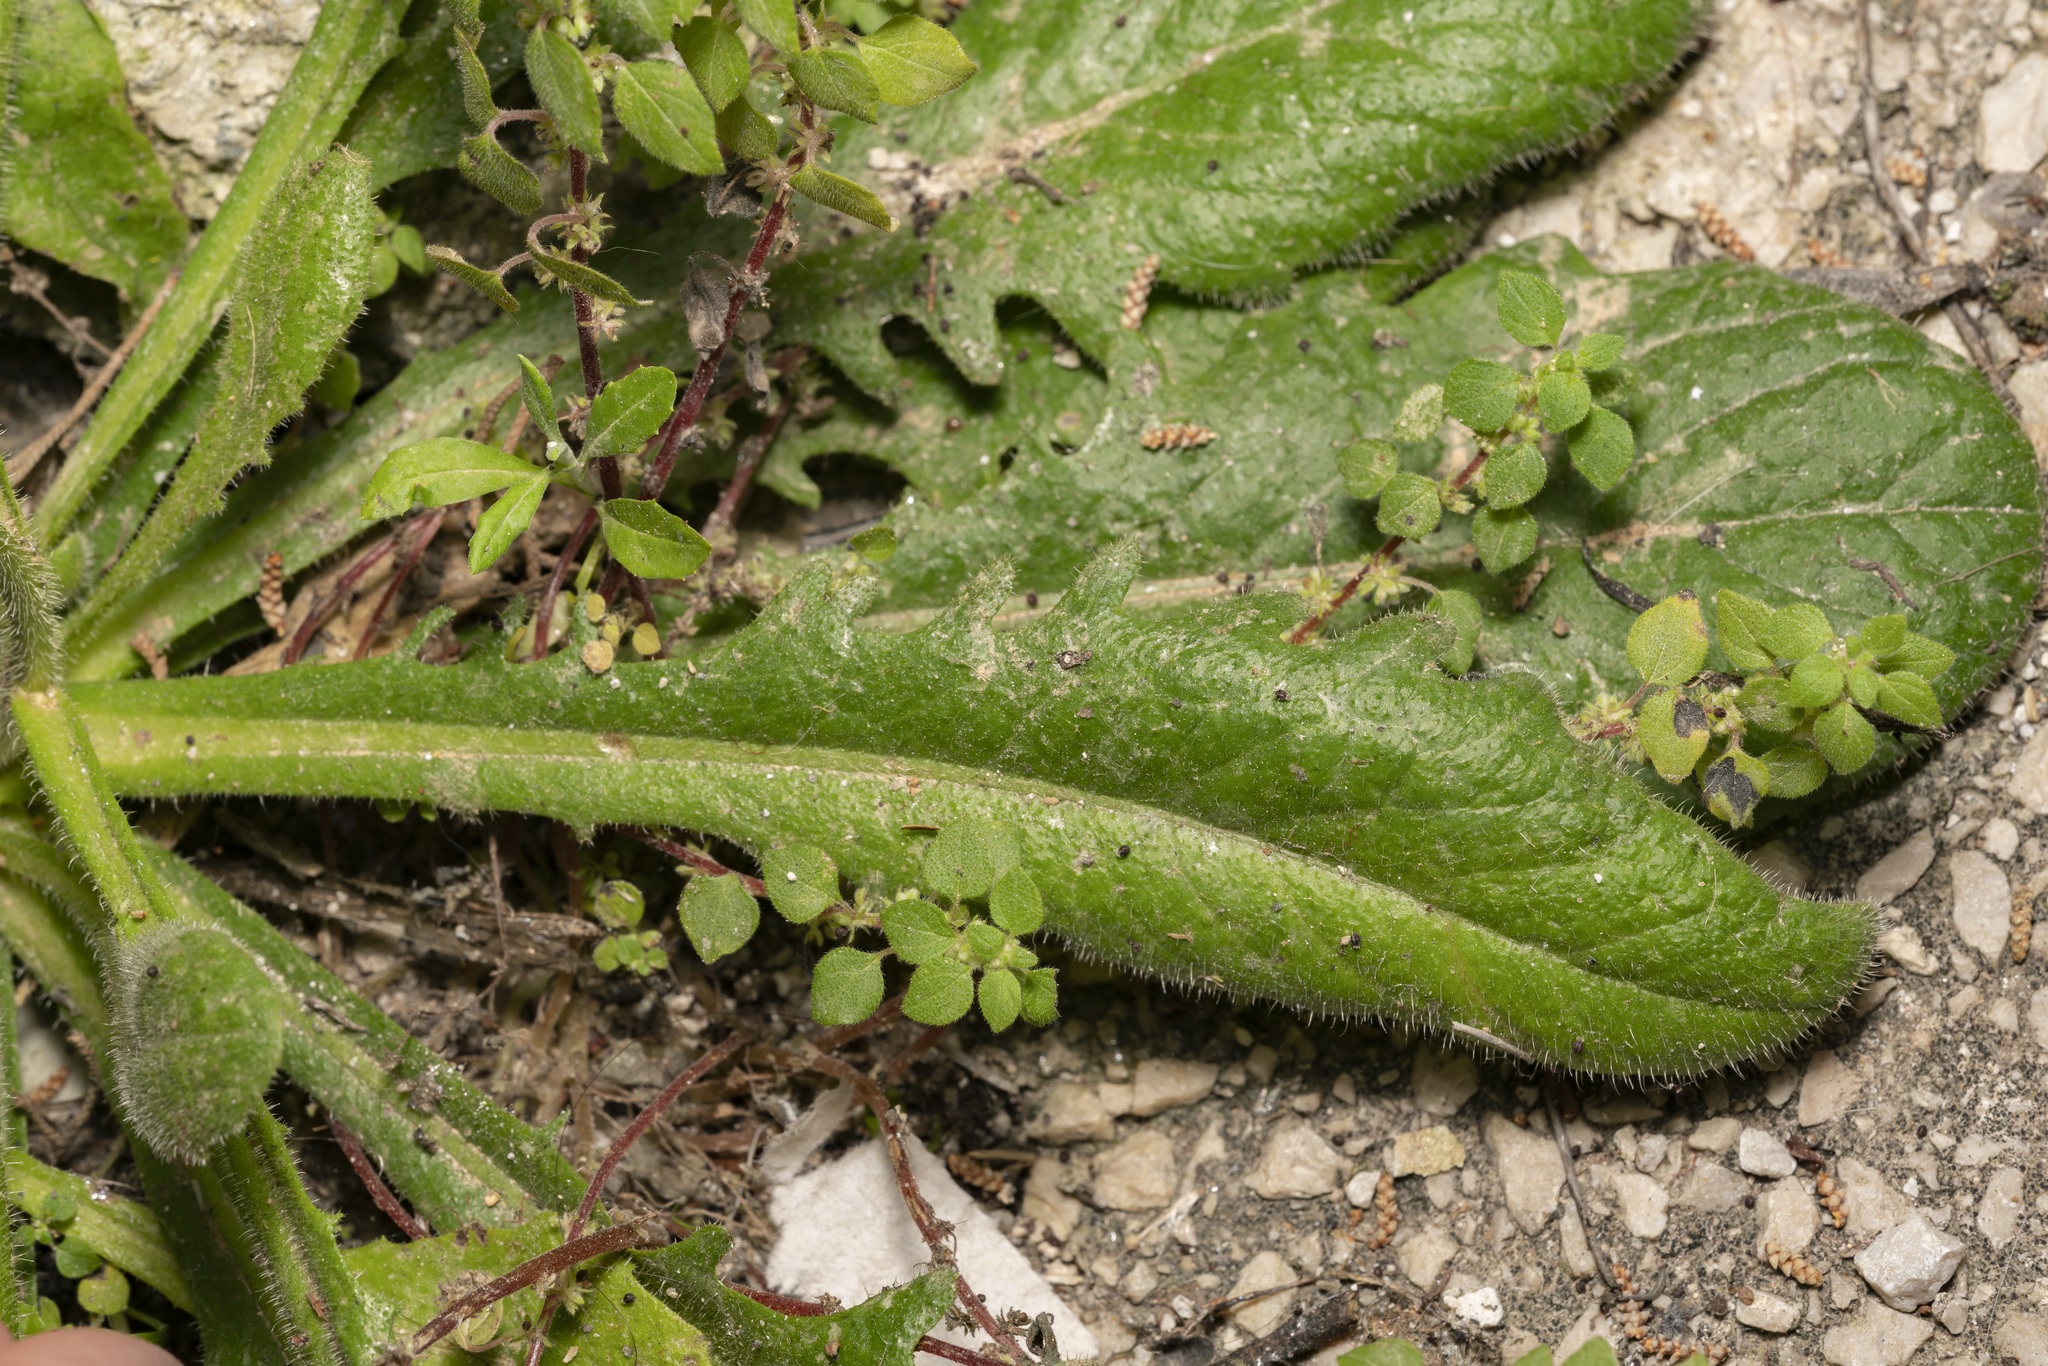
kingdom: Plantae
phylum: Tracheophyta
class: Magnoliopsida
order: Asterales
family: Asteraceae
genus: Achyrophorus
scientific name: Achyrophorus valdesii
